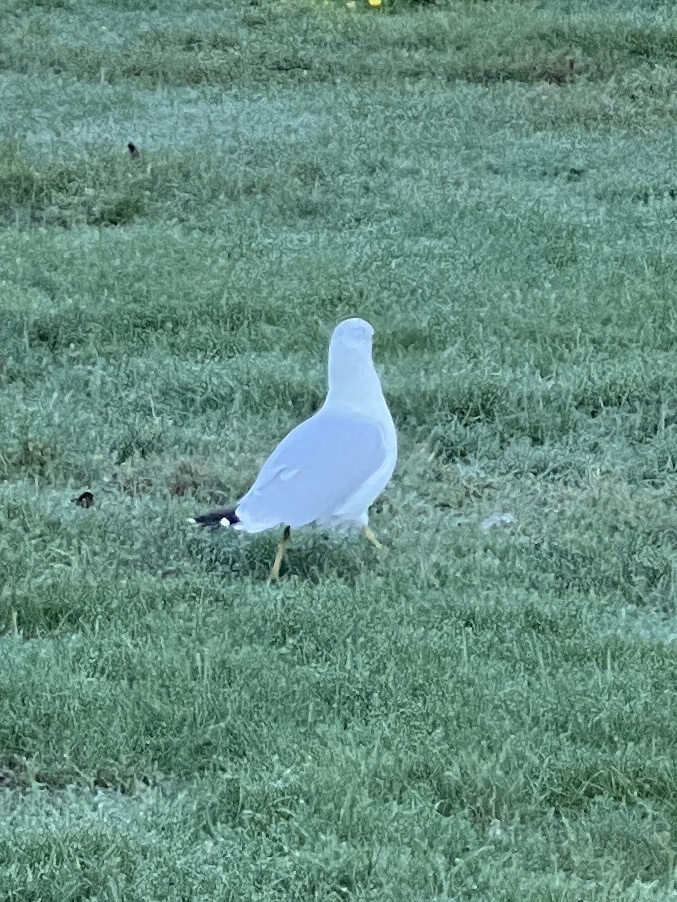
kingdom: Animalia
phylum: Chordata
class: Aves
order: Charadriiformes
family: Laridae
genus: Larus
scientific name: Larus delawarensis
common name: Ring-billed gull
